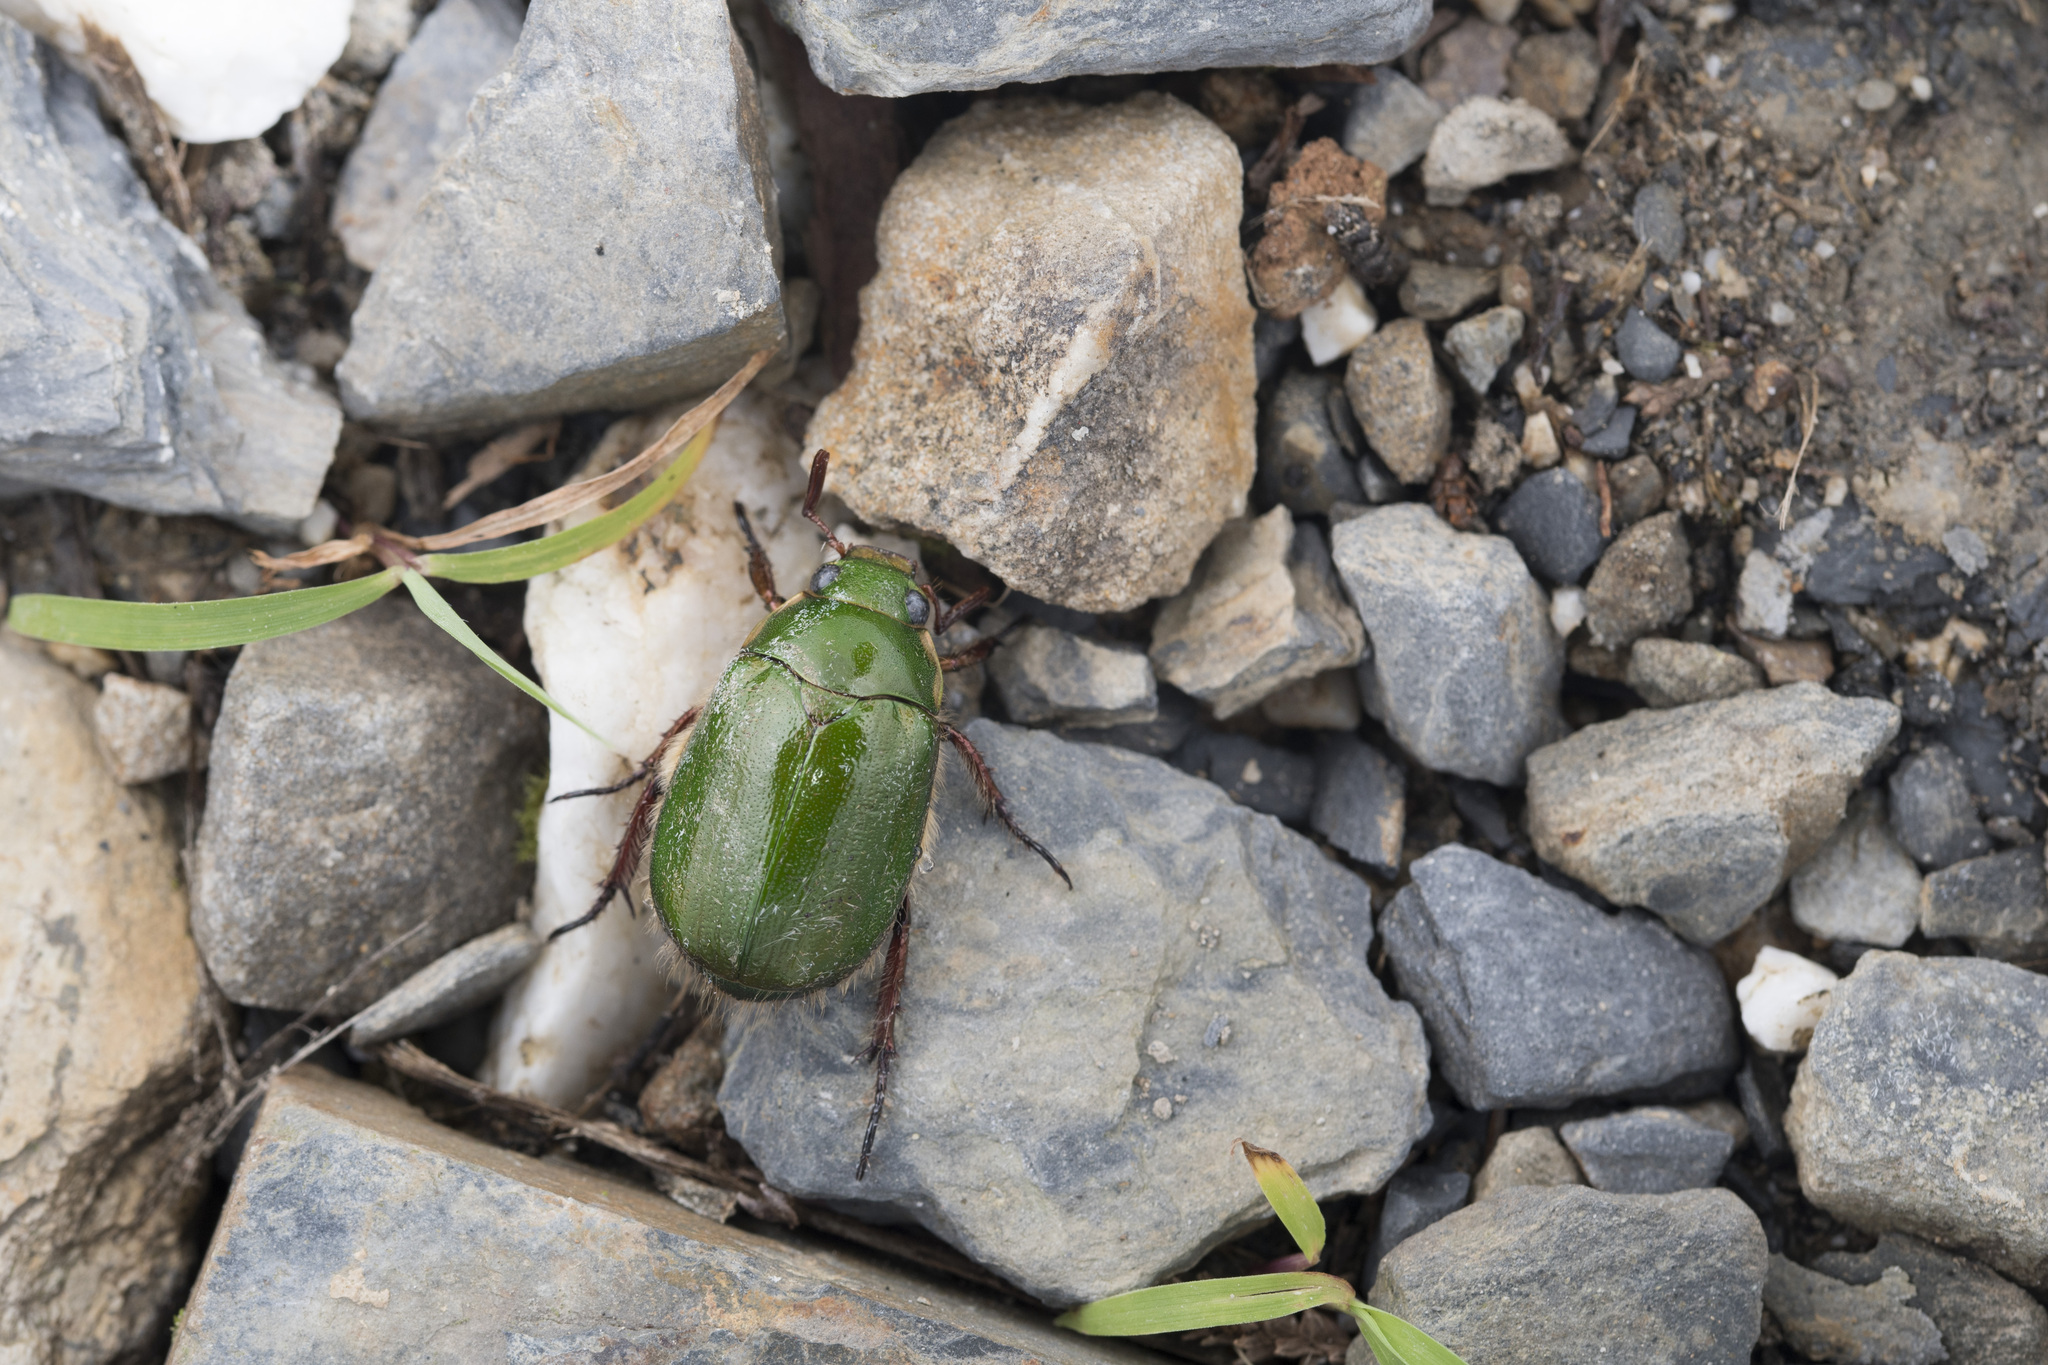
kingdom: Animalia
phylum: Arthropoda
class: Insecta
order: Coleoptera
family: Scarabaeidae
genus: Mimela
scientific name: Mimela passerinii
